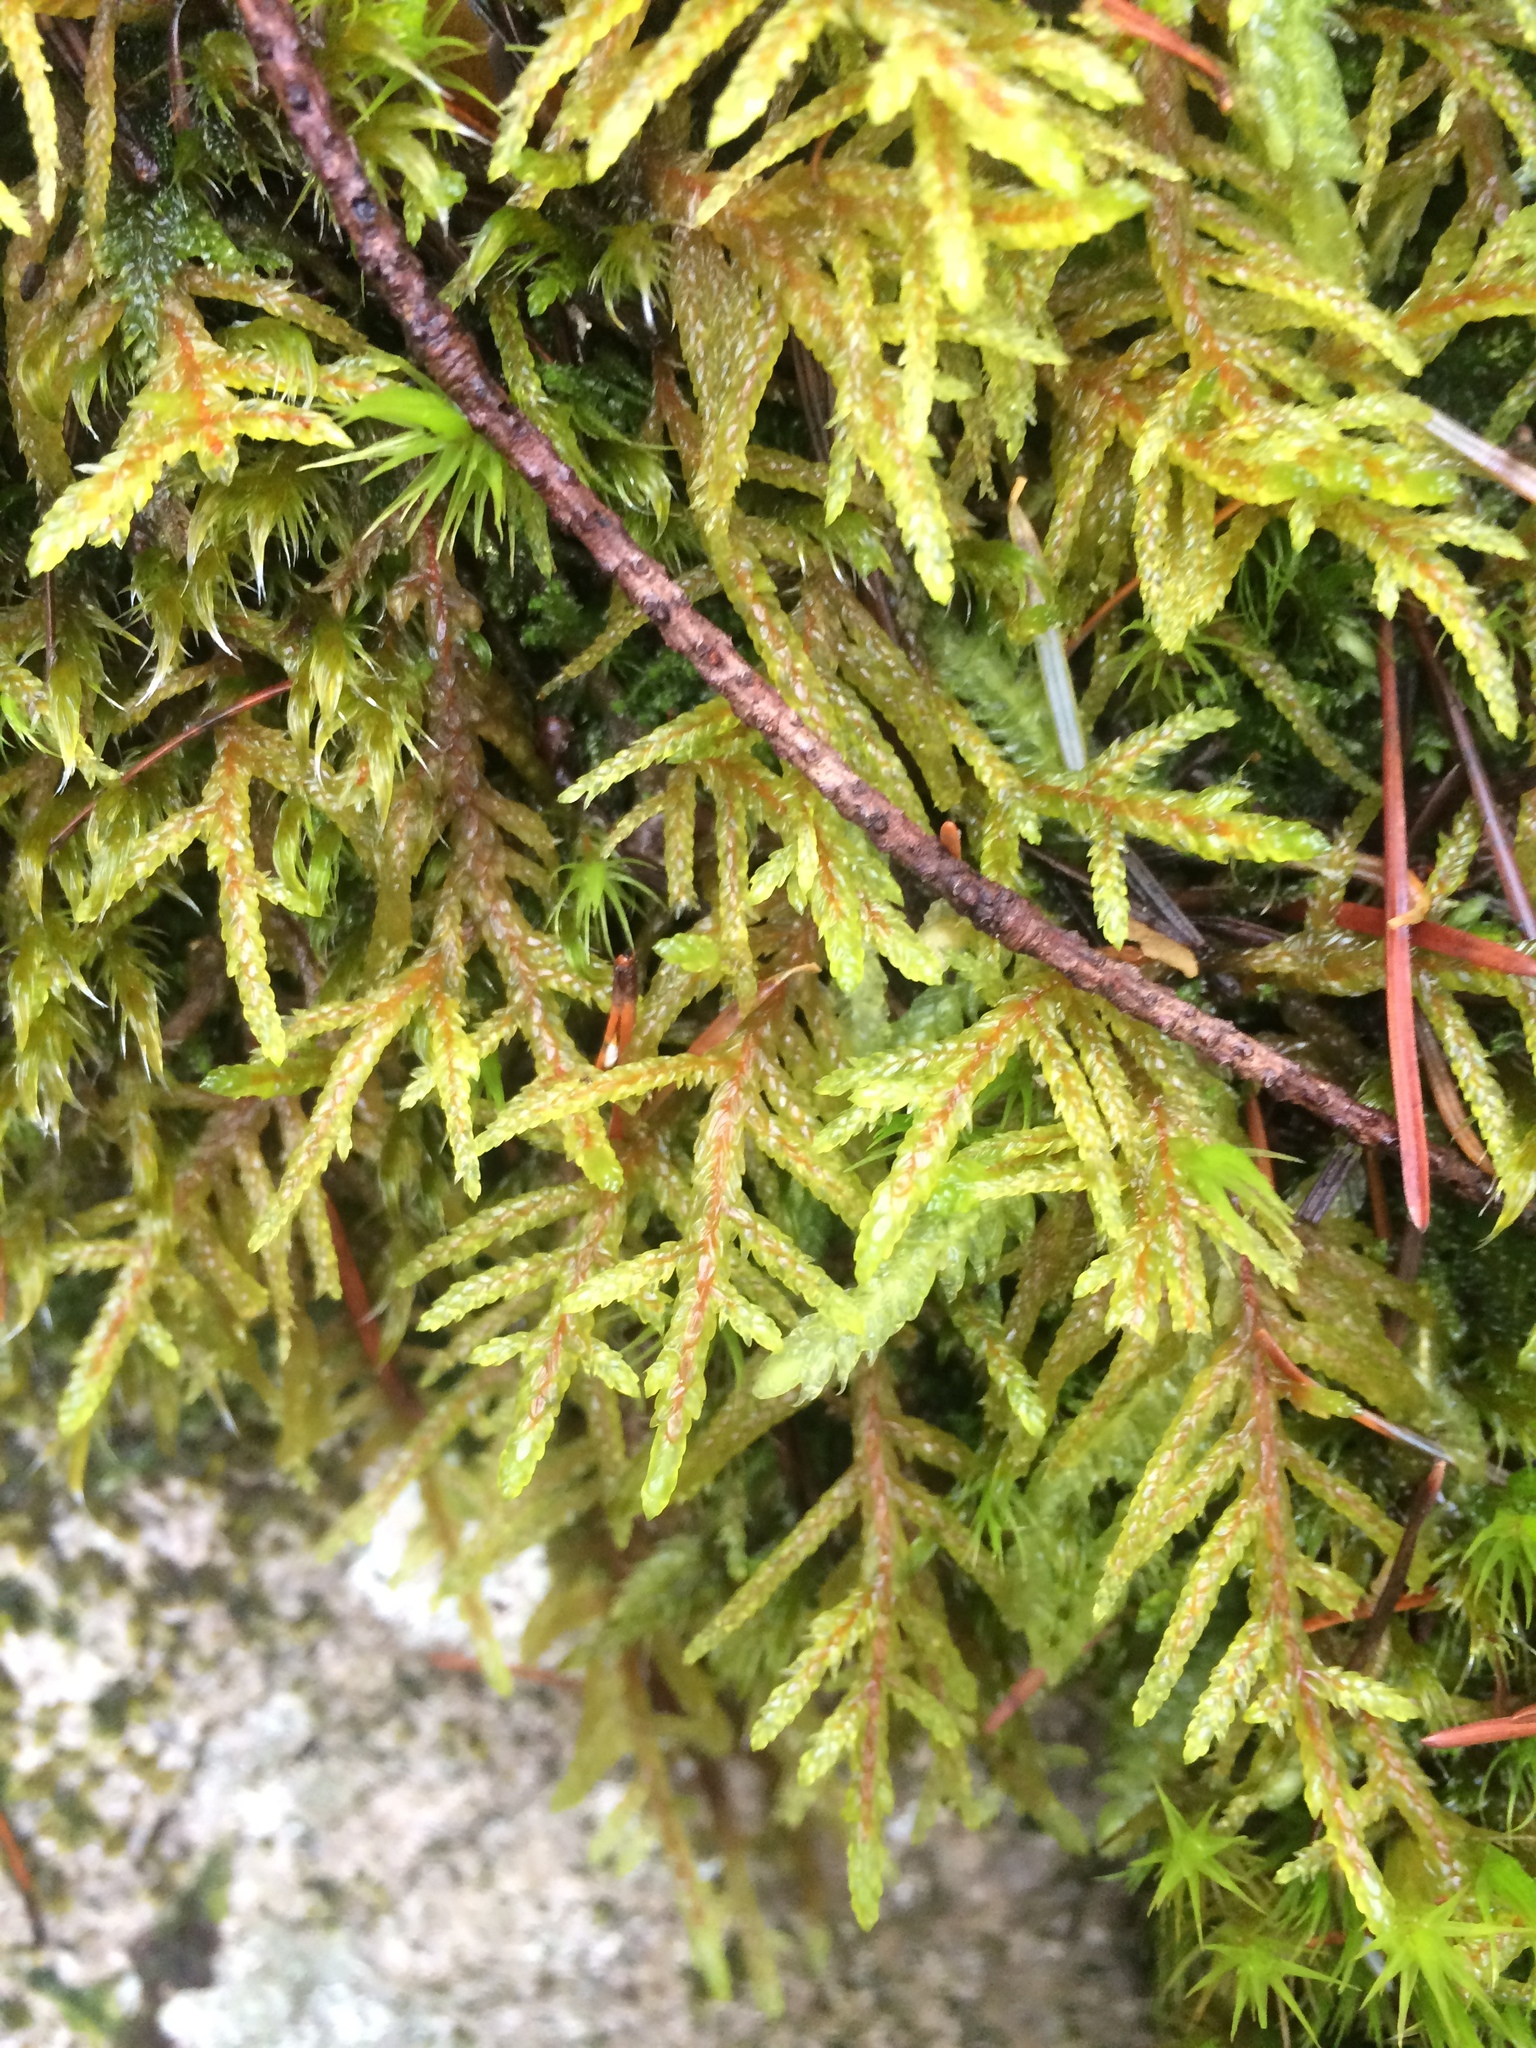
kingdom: Plantae
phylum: Bryophyta
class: Bryopsida
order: Hypnales
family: Hylocomiaceae
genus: Pleurozium
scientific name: Pleurozium schreberi
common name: Red-stemmed feather moss
